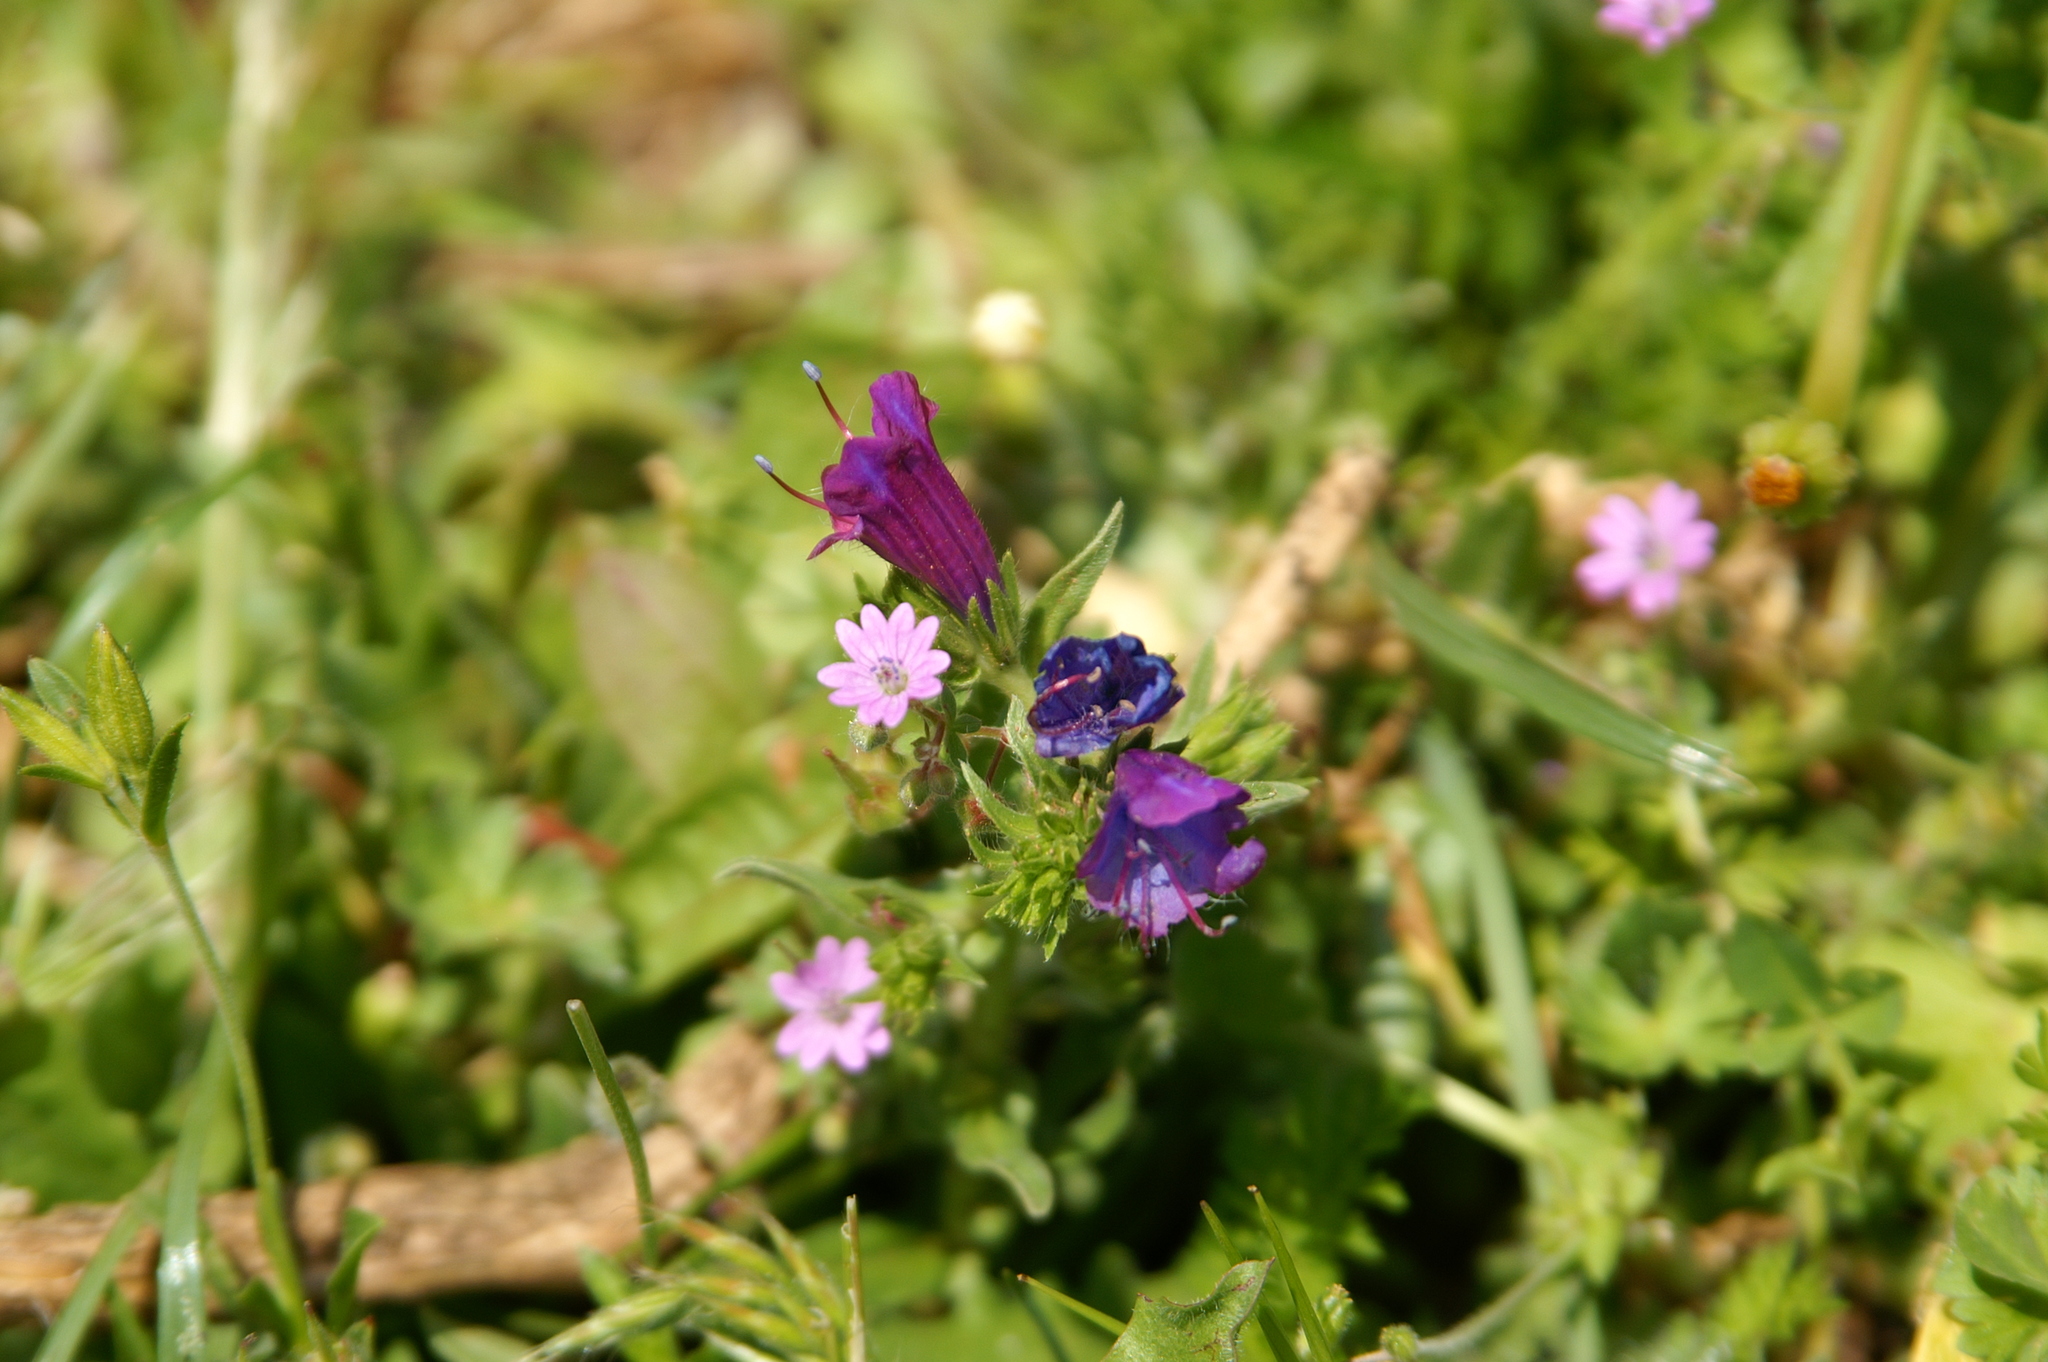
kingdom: Plantae
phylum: Tracheophyta
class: Magnoliopsida
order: Boraginales
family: Boraginaceae
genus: Echium
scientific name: Echium plantagineum
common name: Purple viper's-bugloss
